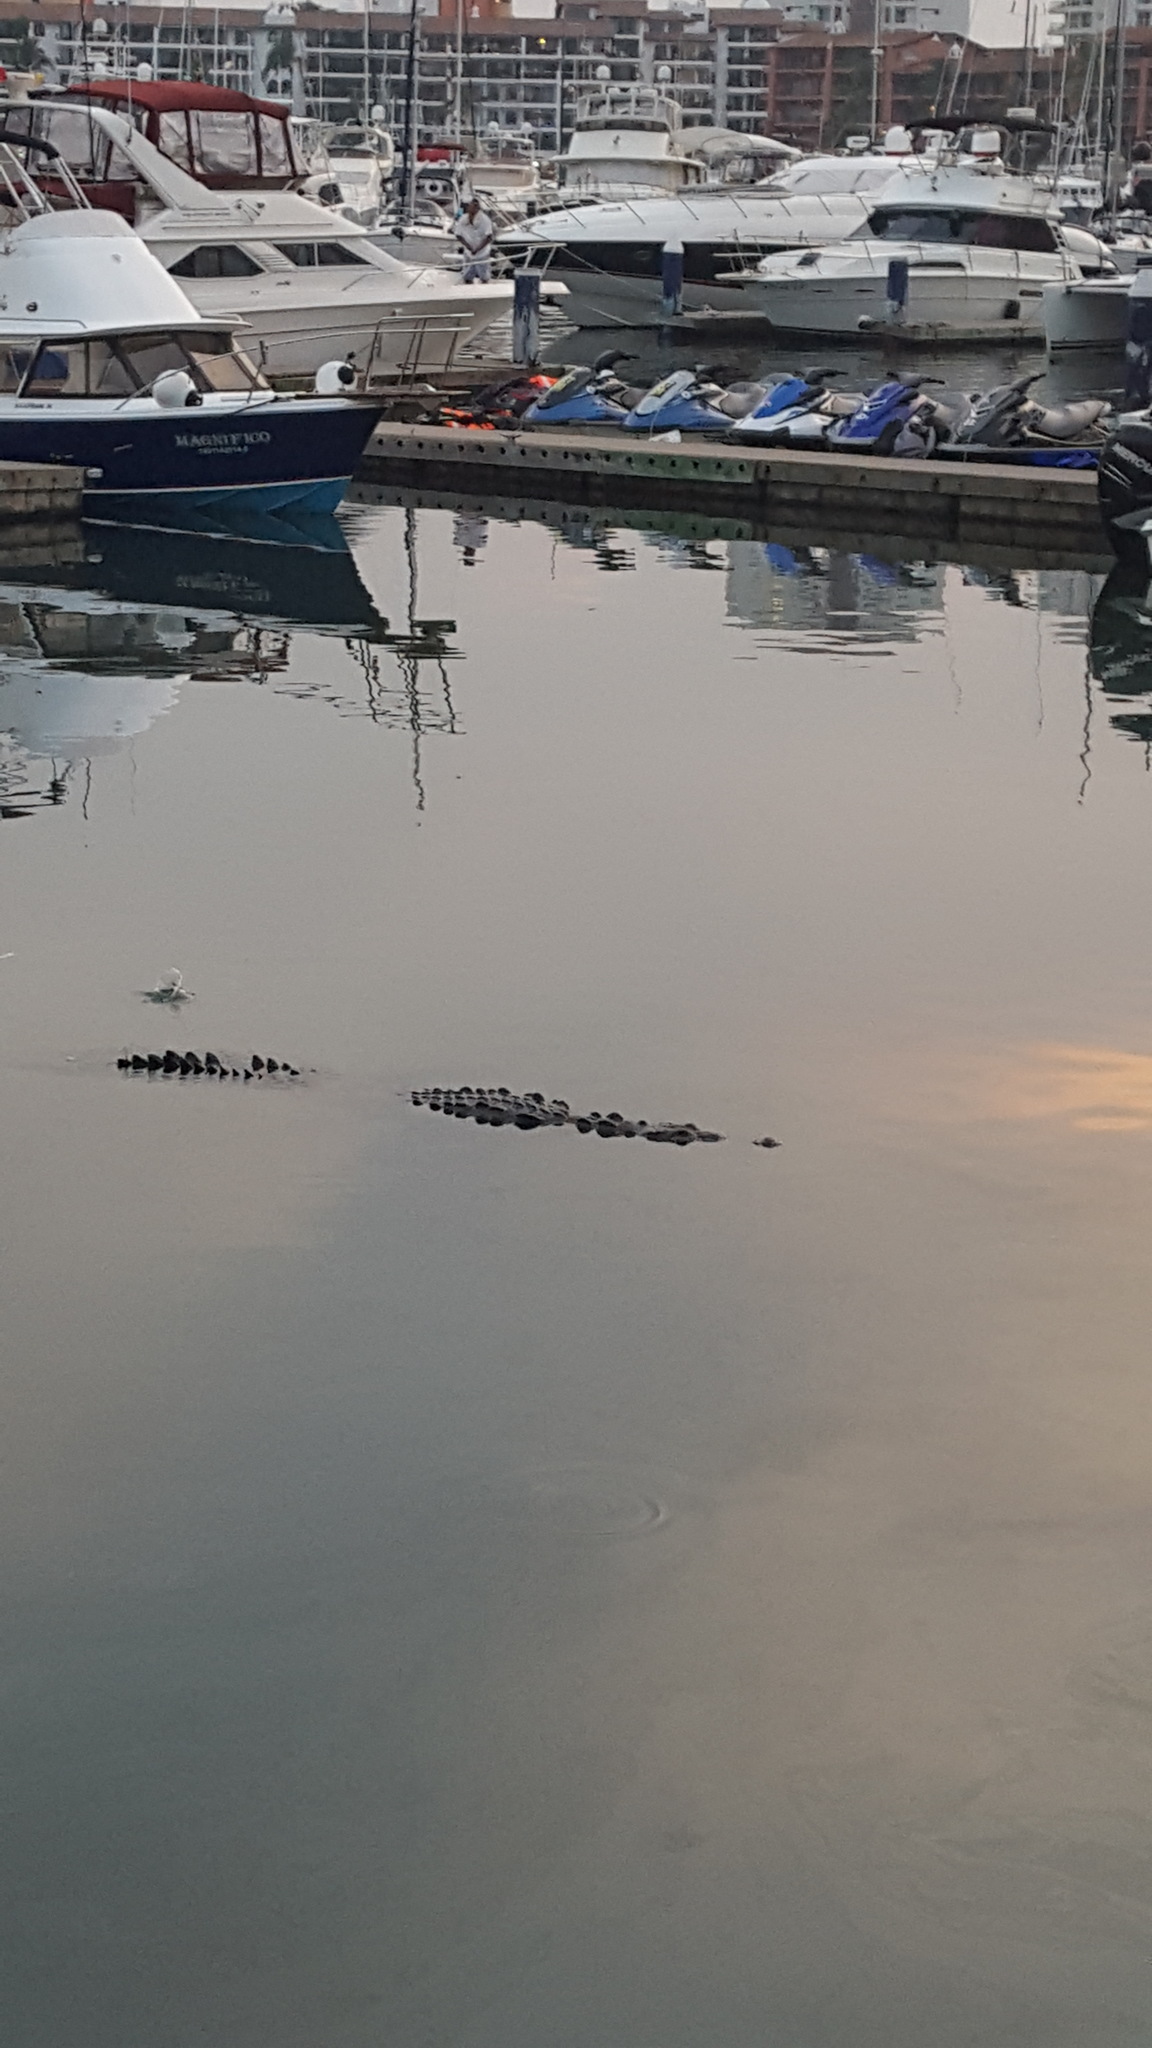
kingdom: Animalia
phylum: Chordata
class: Crocodylia
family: Crocodylidae
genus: Crocodylus
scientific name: Crocodylus acutus
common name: American crocodile
